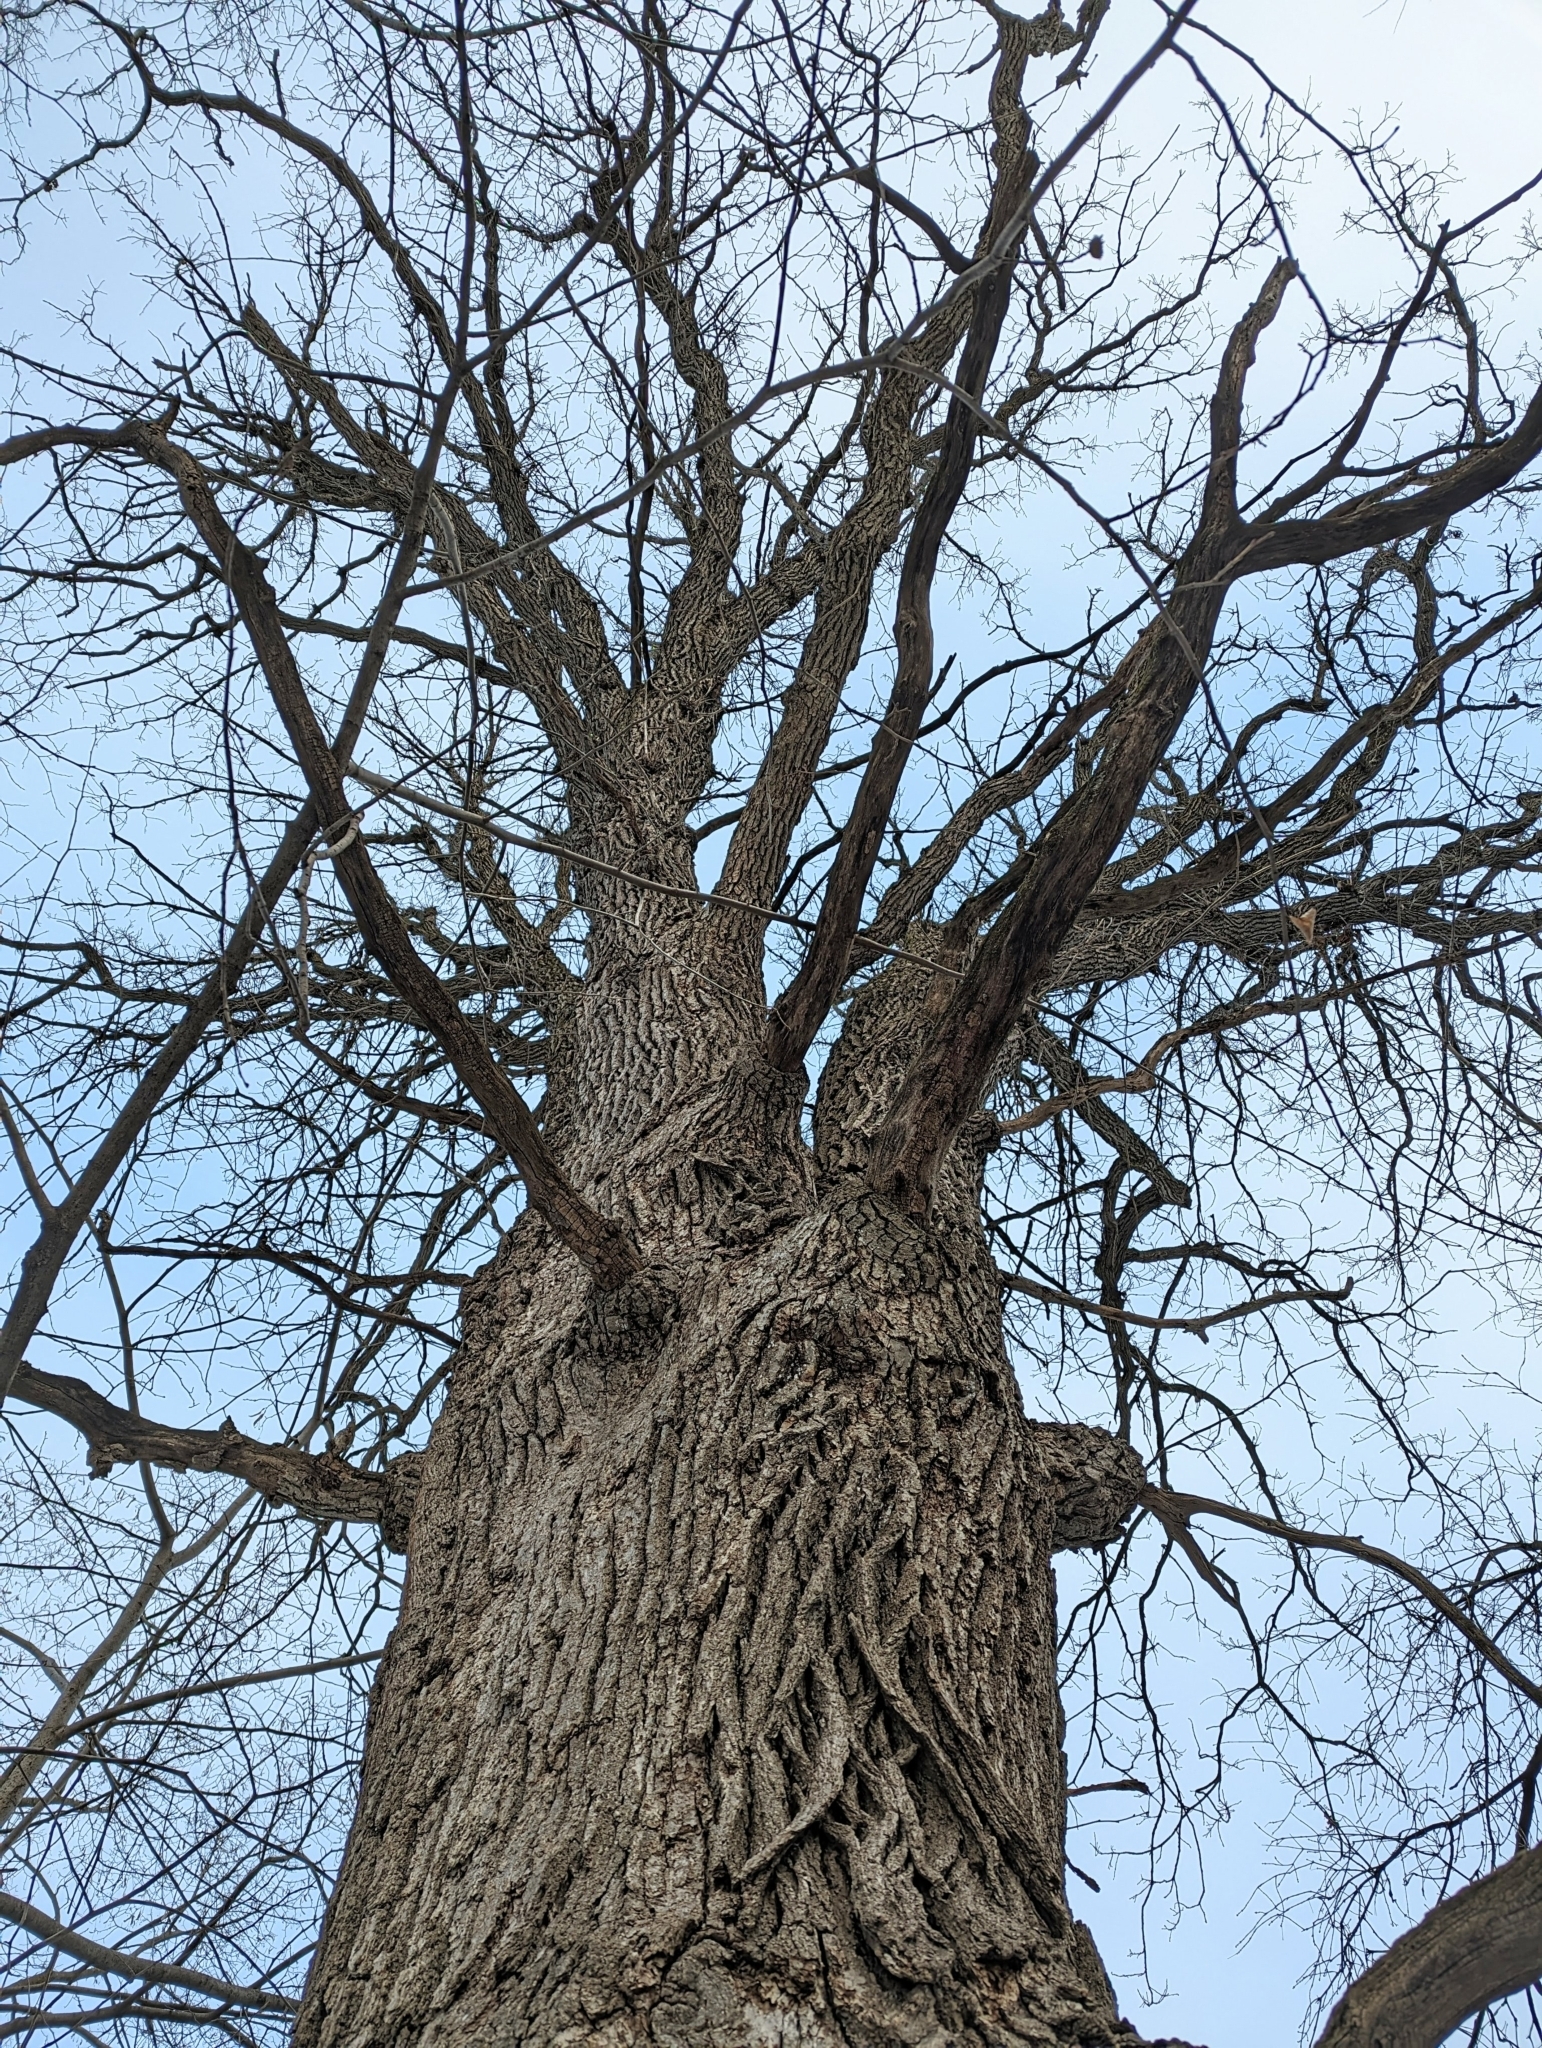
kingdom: Plantae
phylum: Tracheophyta
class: Magnoliopsida
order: Fagales
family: Fagaceae
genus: Quercus
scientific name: Quercus macrocarpa
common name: Bur oak
